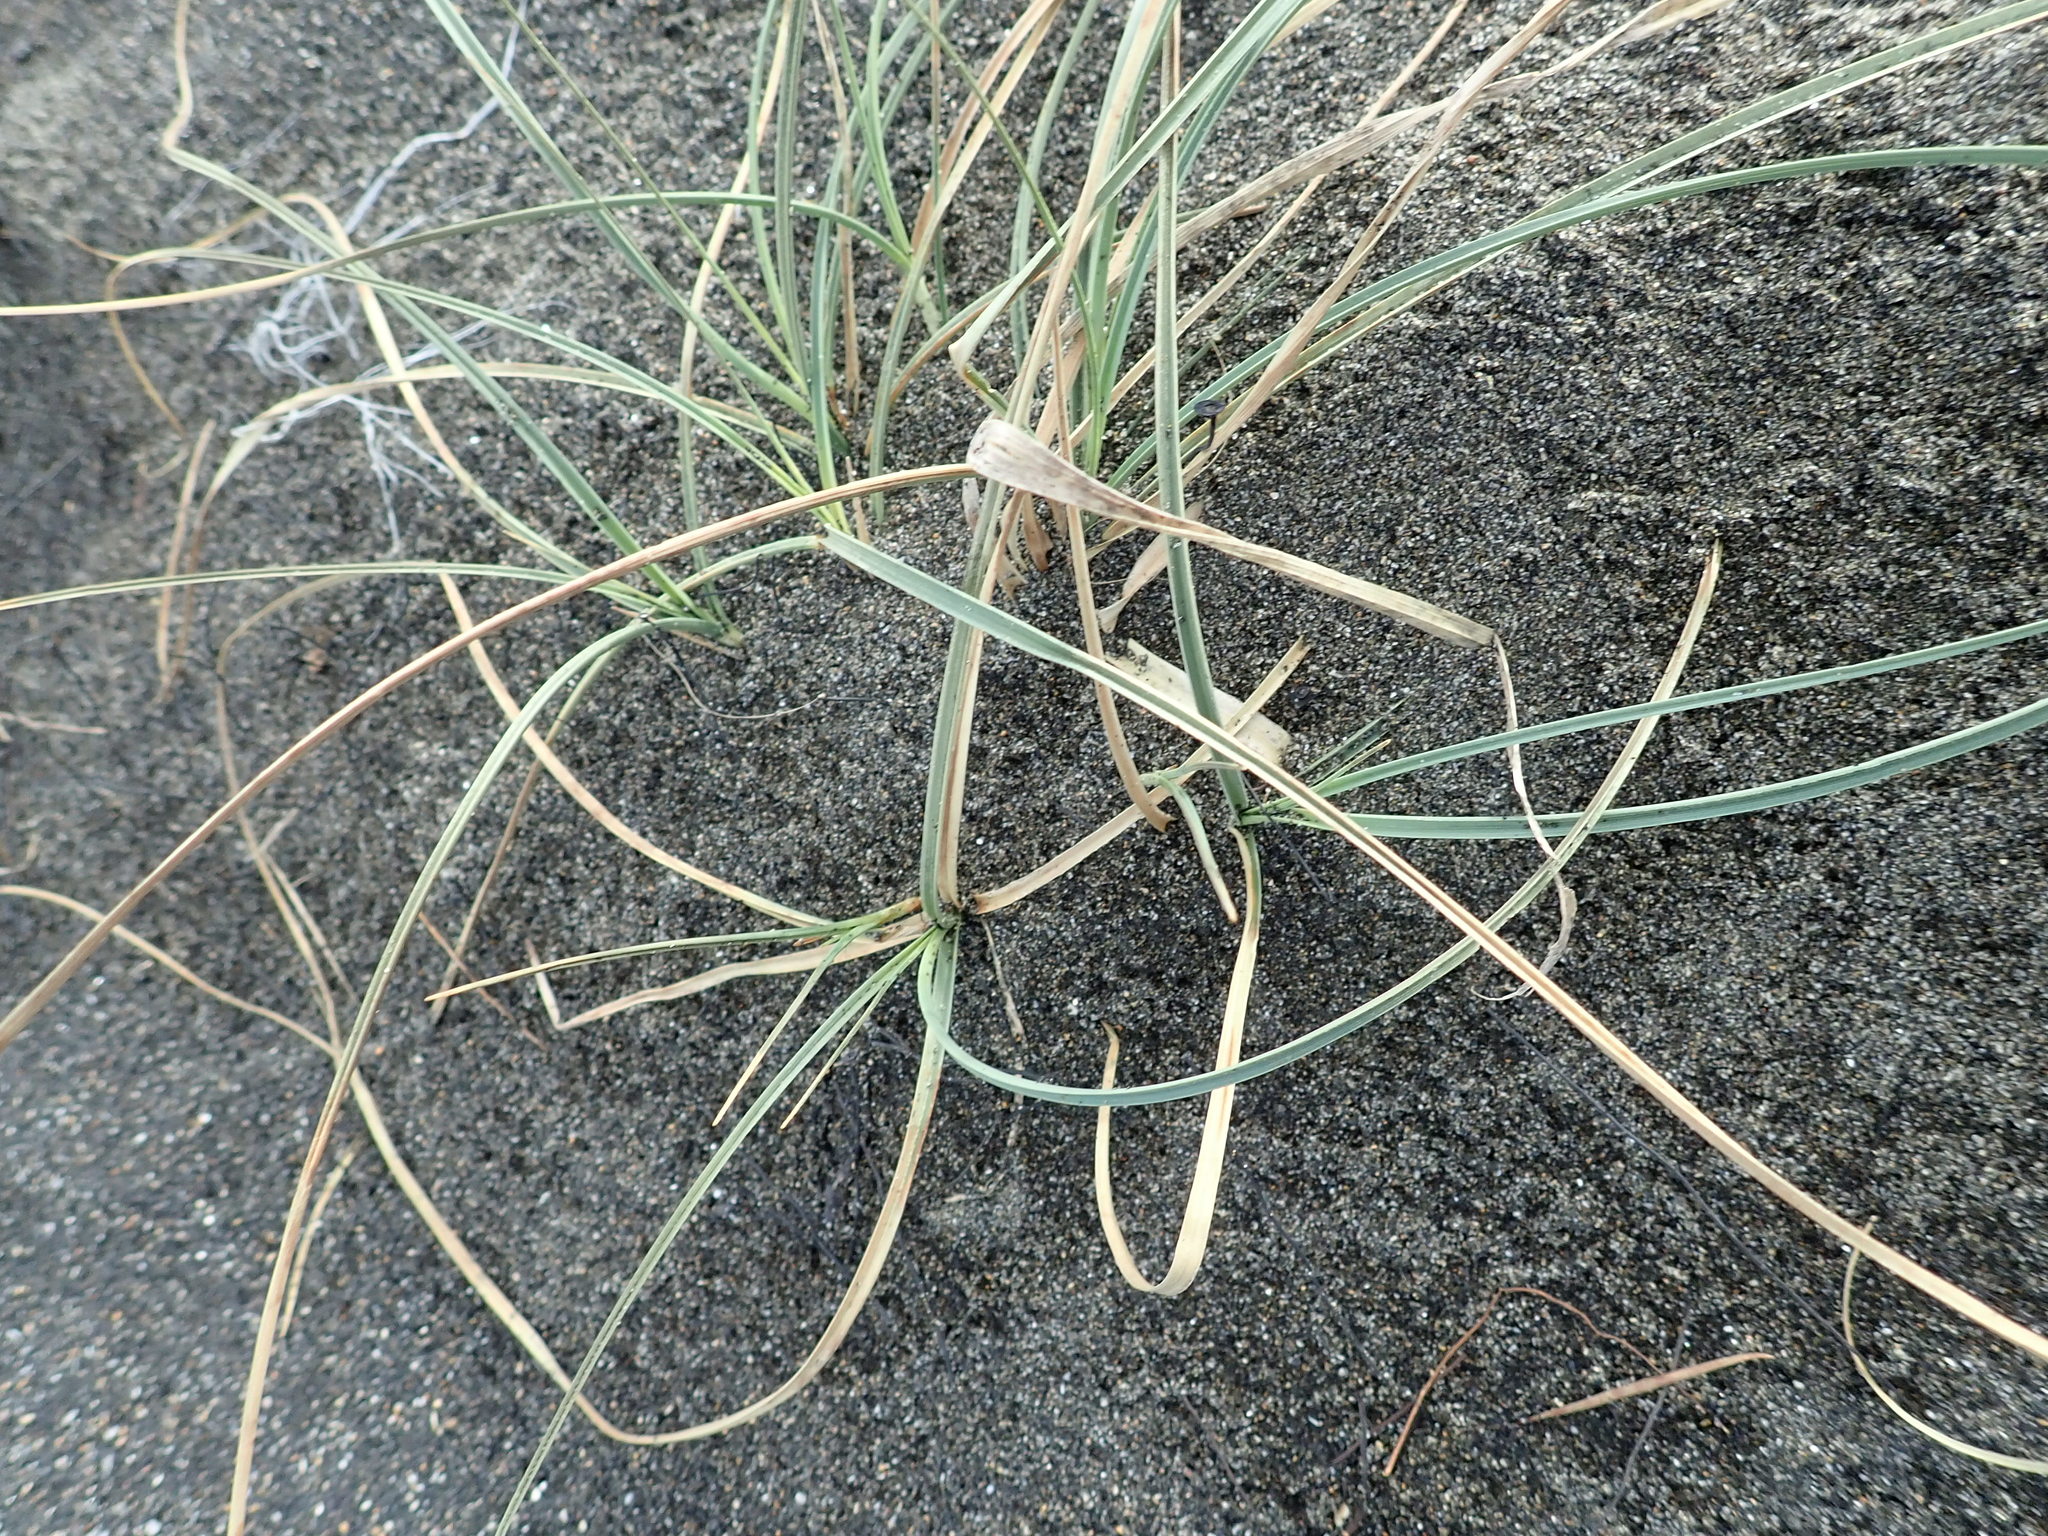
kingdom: Plantae
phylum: Tracheophyta
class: Liliopsida
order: Poales
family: Cyperaceae
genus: Carex
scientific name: Carex pumila
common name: Dwarf sedge
